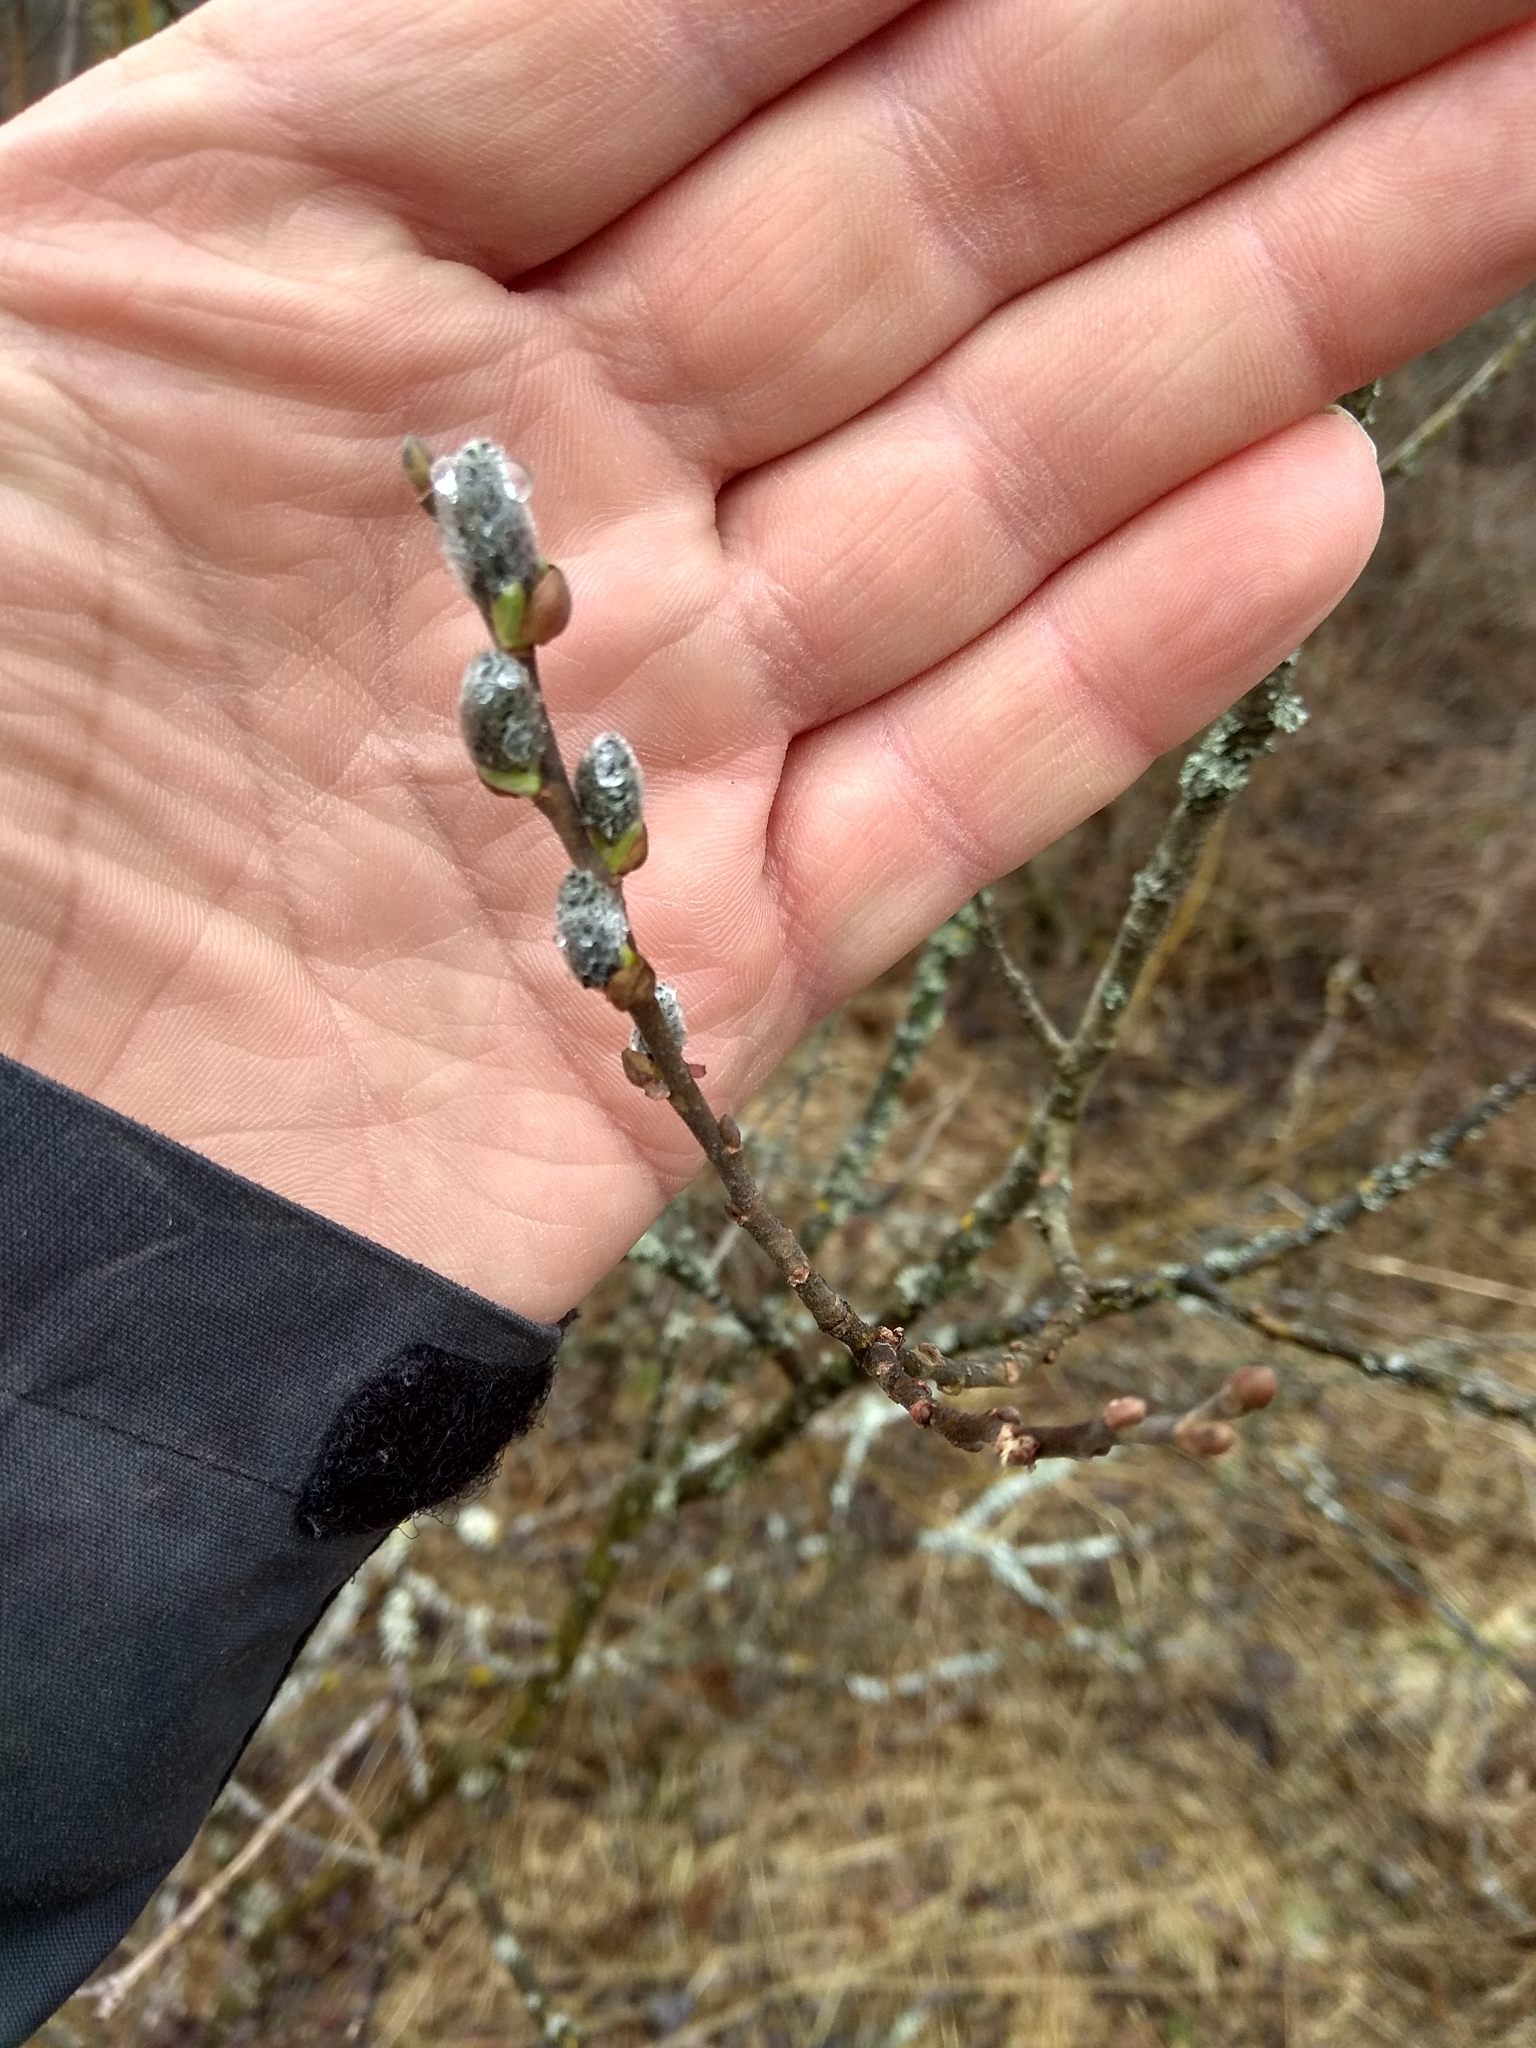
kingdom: Plantae
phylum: Tracheophyta
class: Magnoliopsida
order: Malpighiales
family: Salicaceae
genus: Salix
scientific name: Salix caprea
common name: Goat willow
